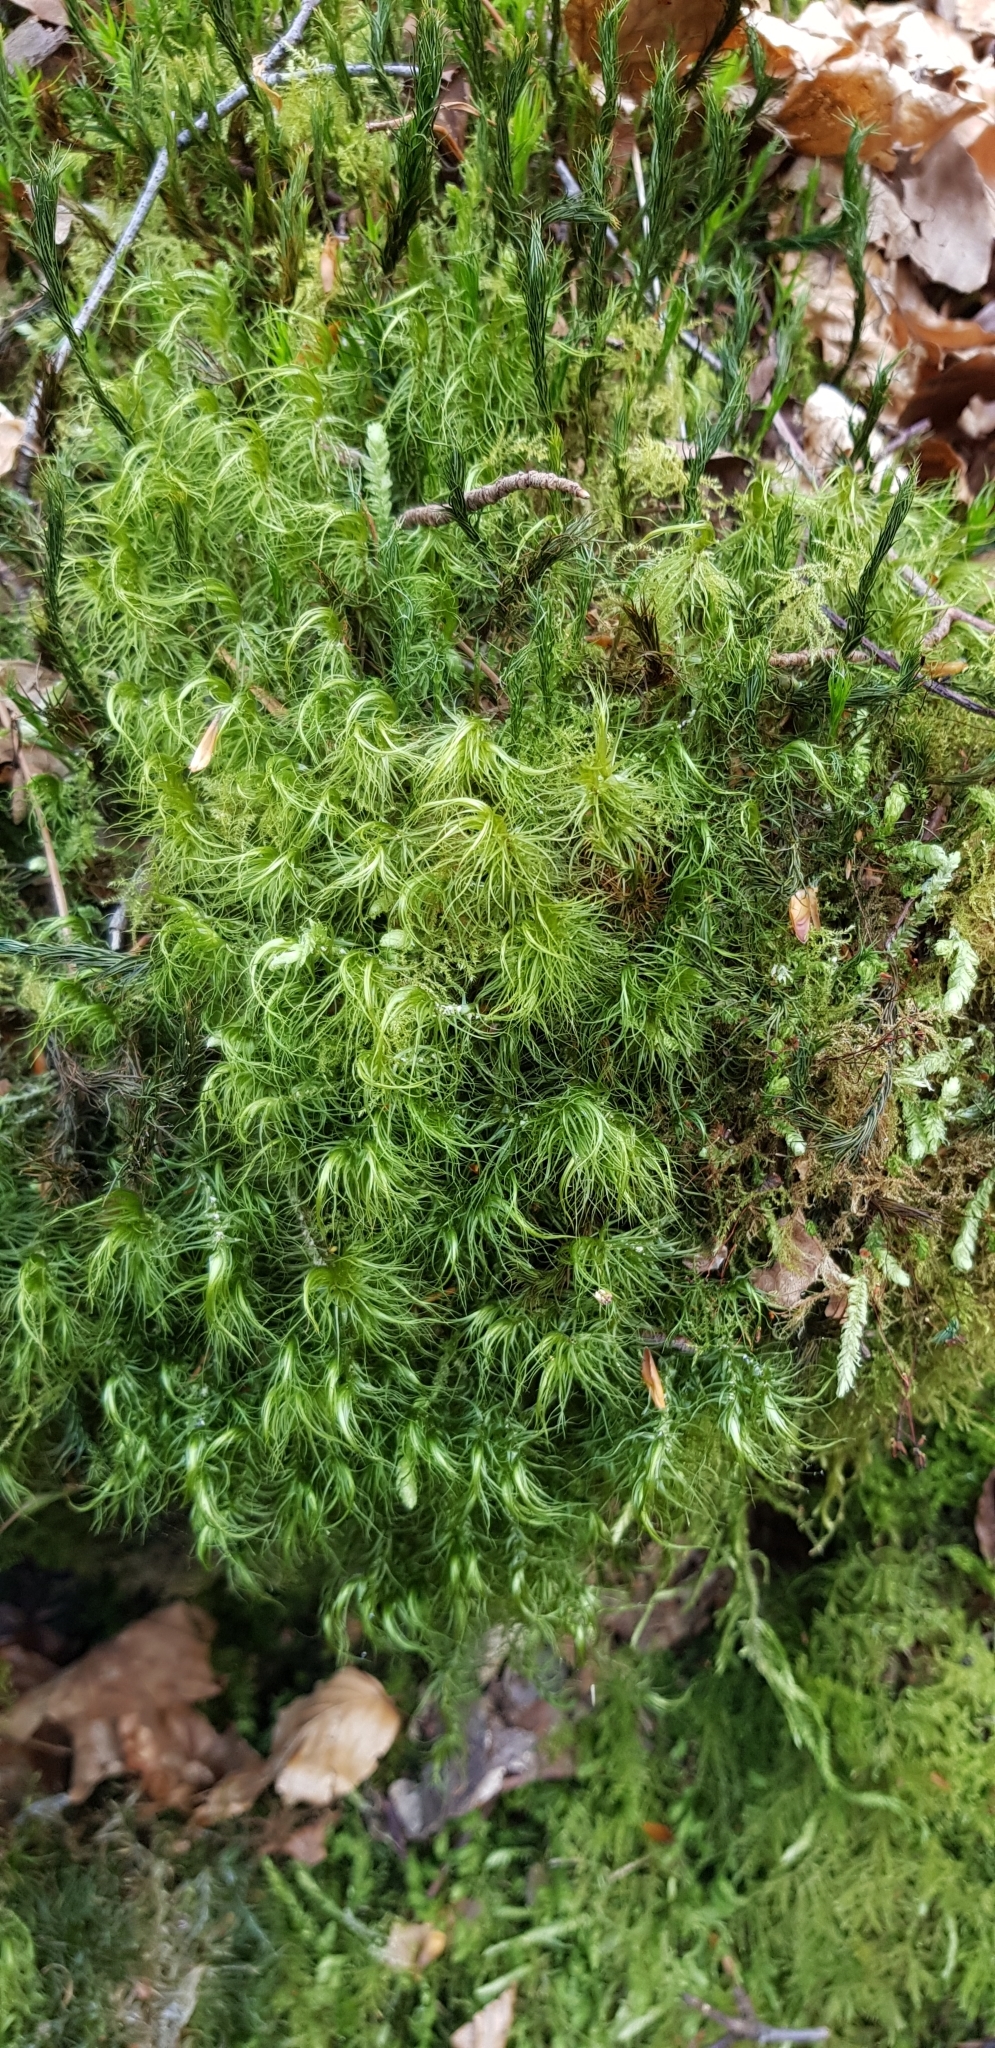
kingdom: Plantae
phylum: Bryophyta
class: Bryopsida
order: Dicranales
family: Dicranaceae
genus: Dicranum
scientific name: Dicranum majus
